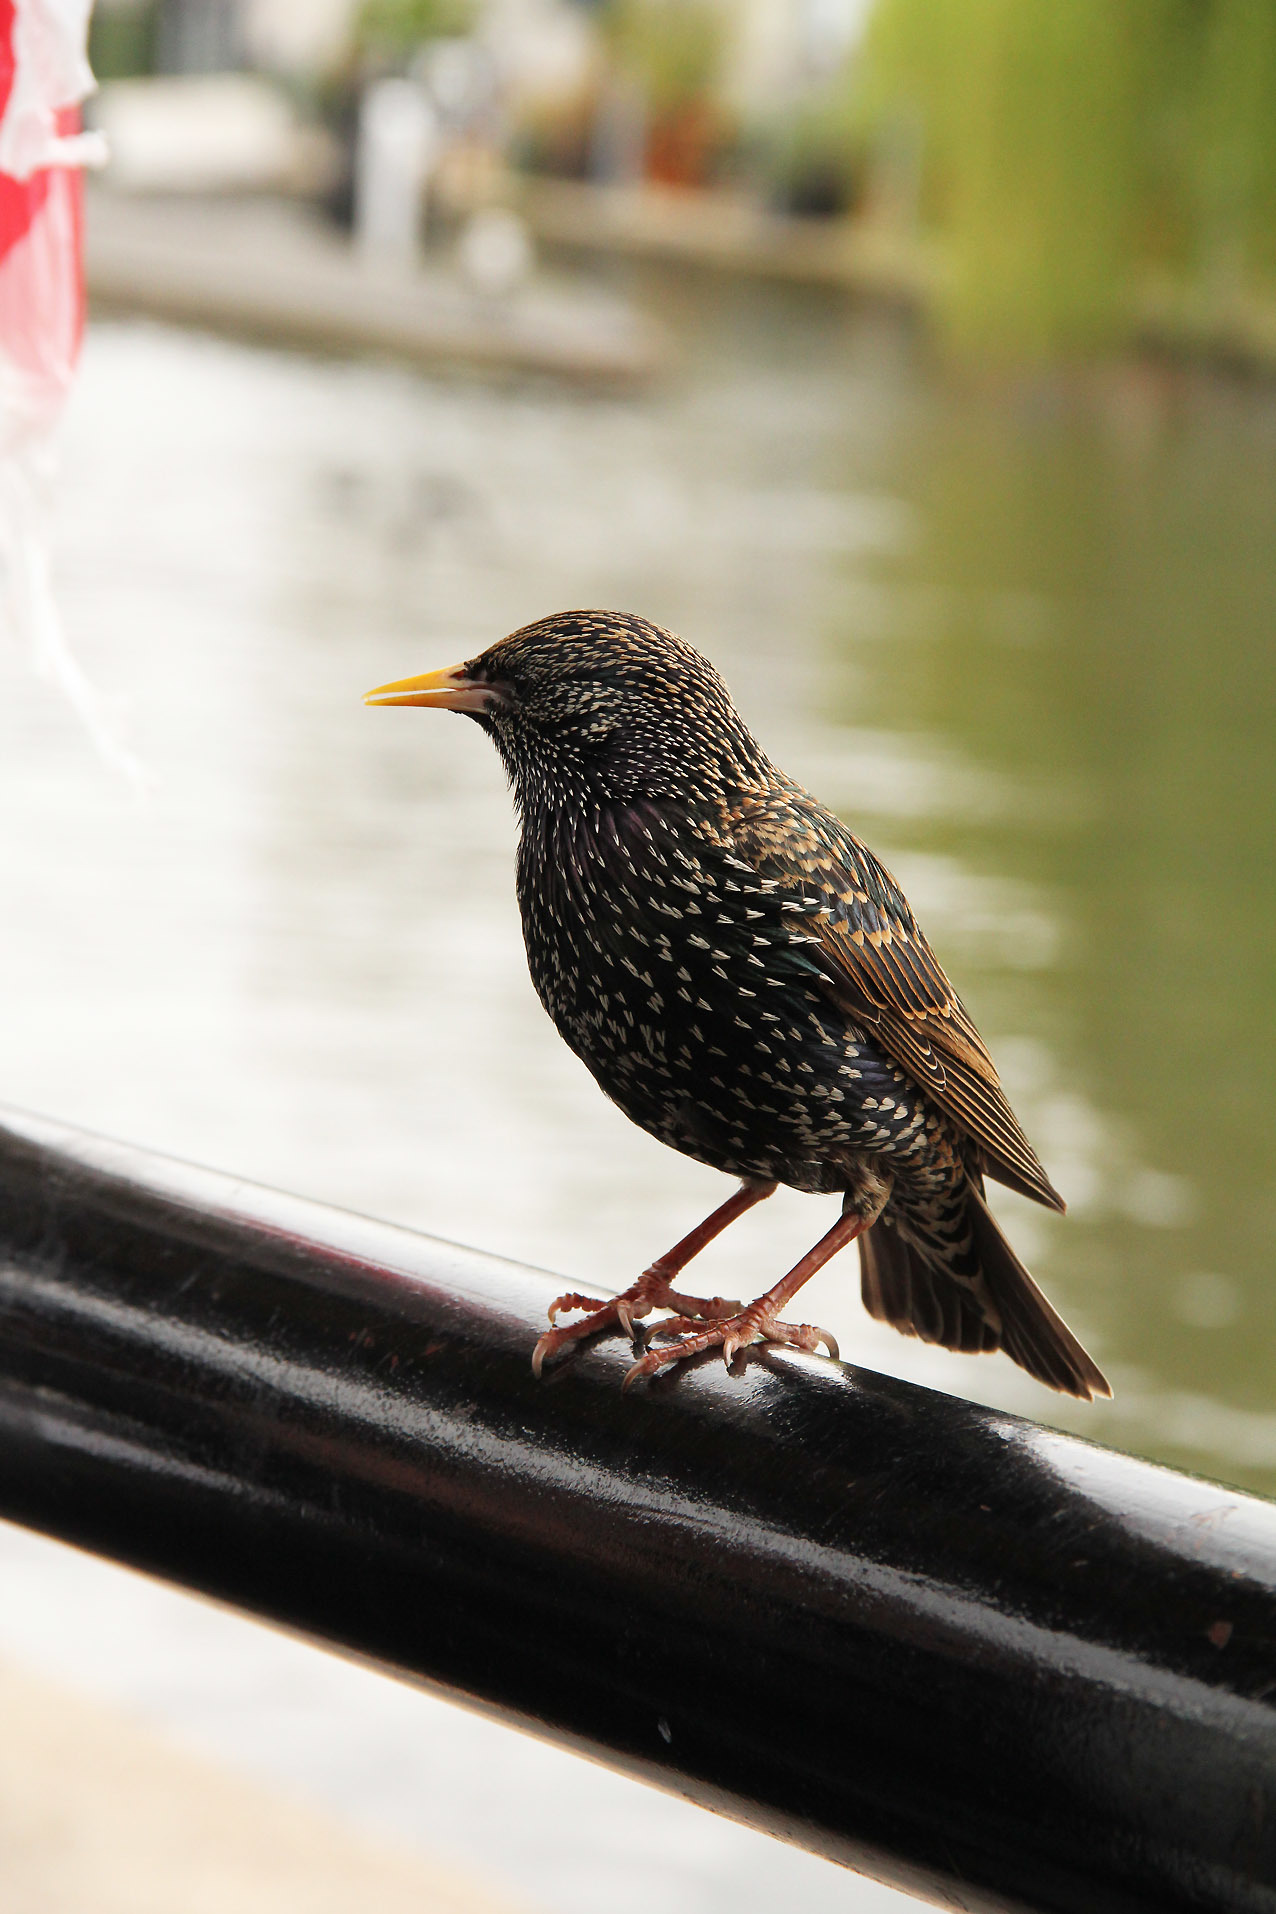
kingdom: Animalia
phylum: Chordata
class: Aves
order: Passeriformes
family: Sturnidae
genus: Sturnus
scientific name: Sturnus vulgaris
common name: Common starling
